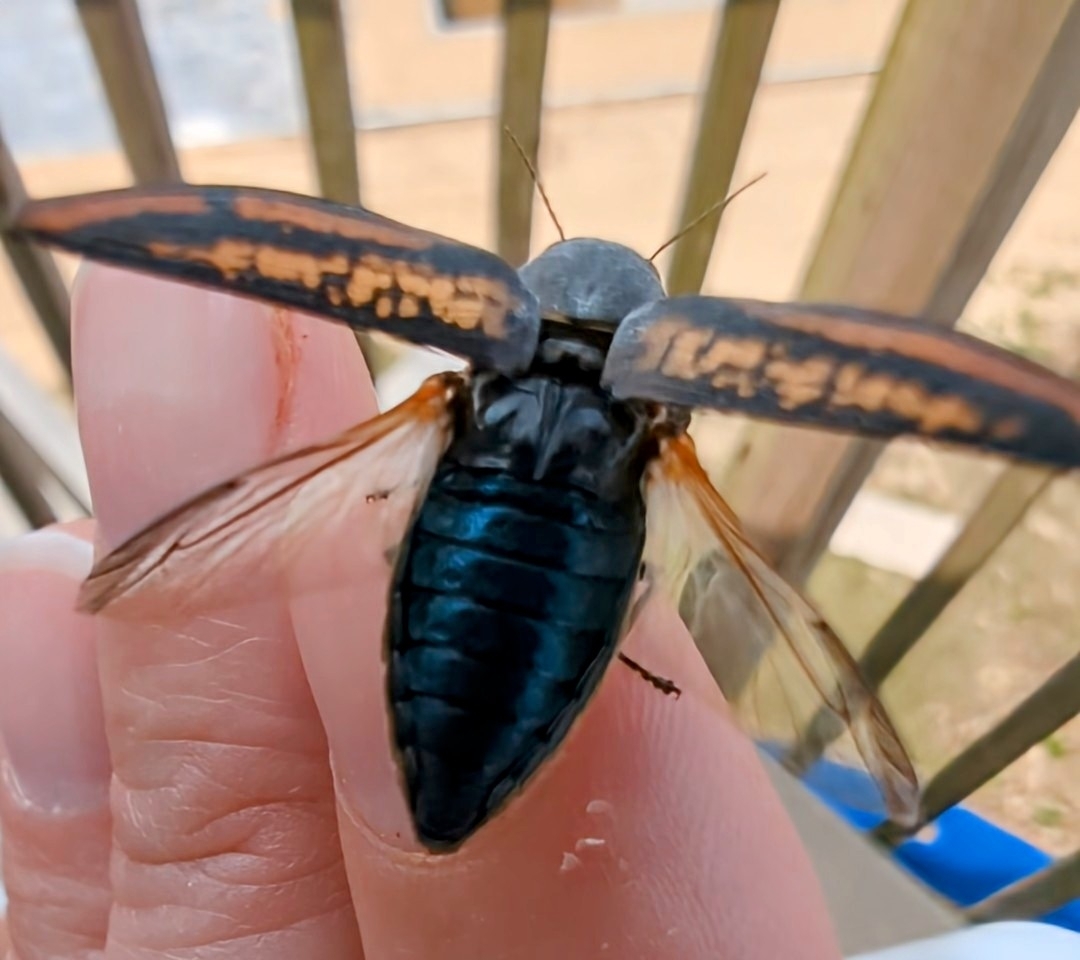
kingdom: Animalia
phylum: Arthropoda
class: Insecta
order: Coleoptera
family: Buprestidae
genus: Buprestis
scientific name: Buprestis lineata
